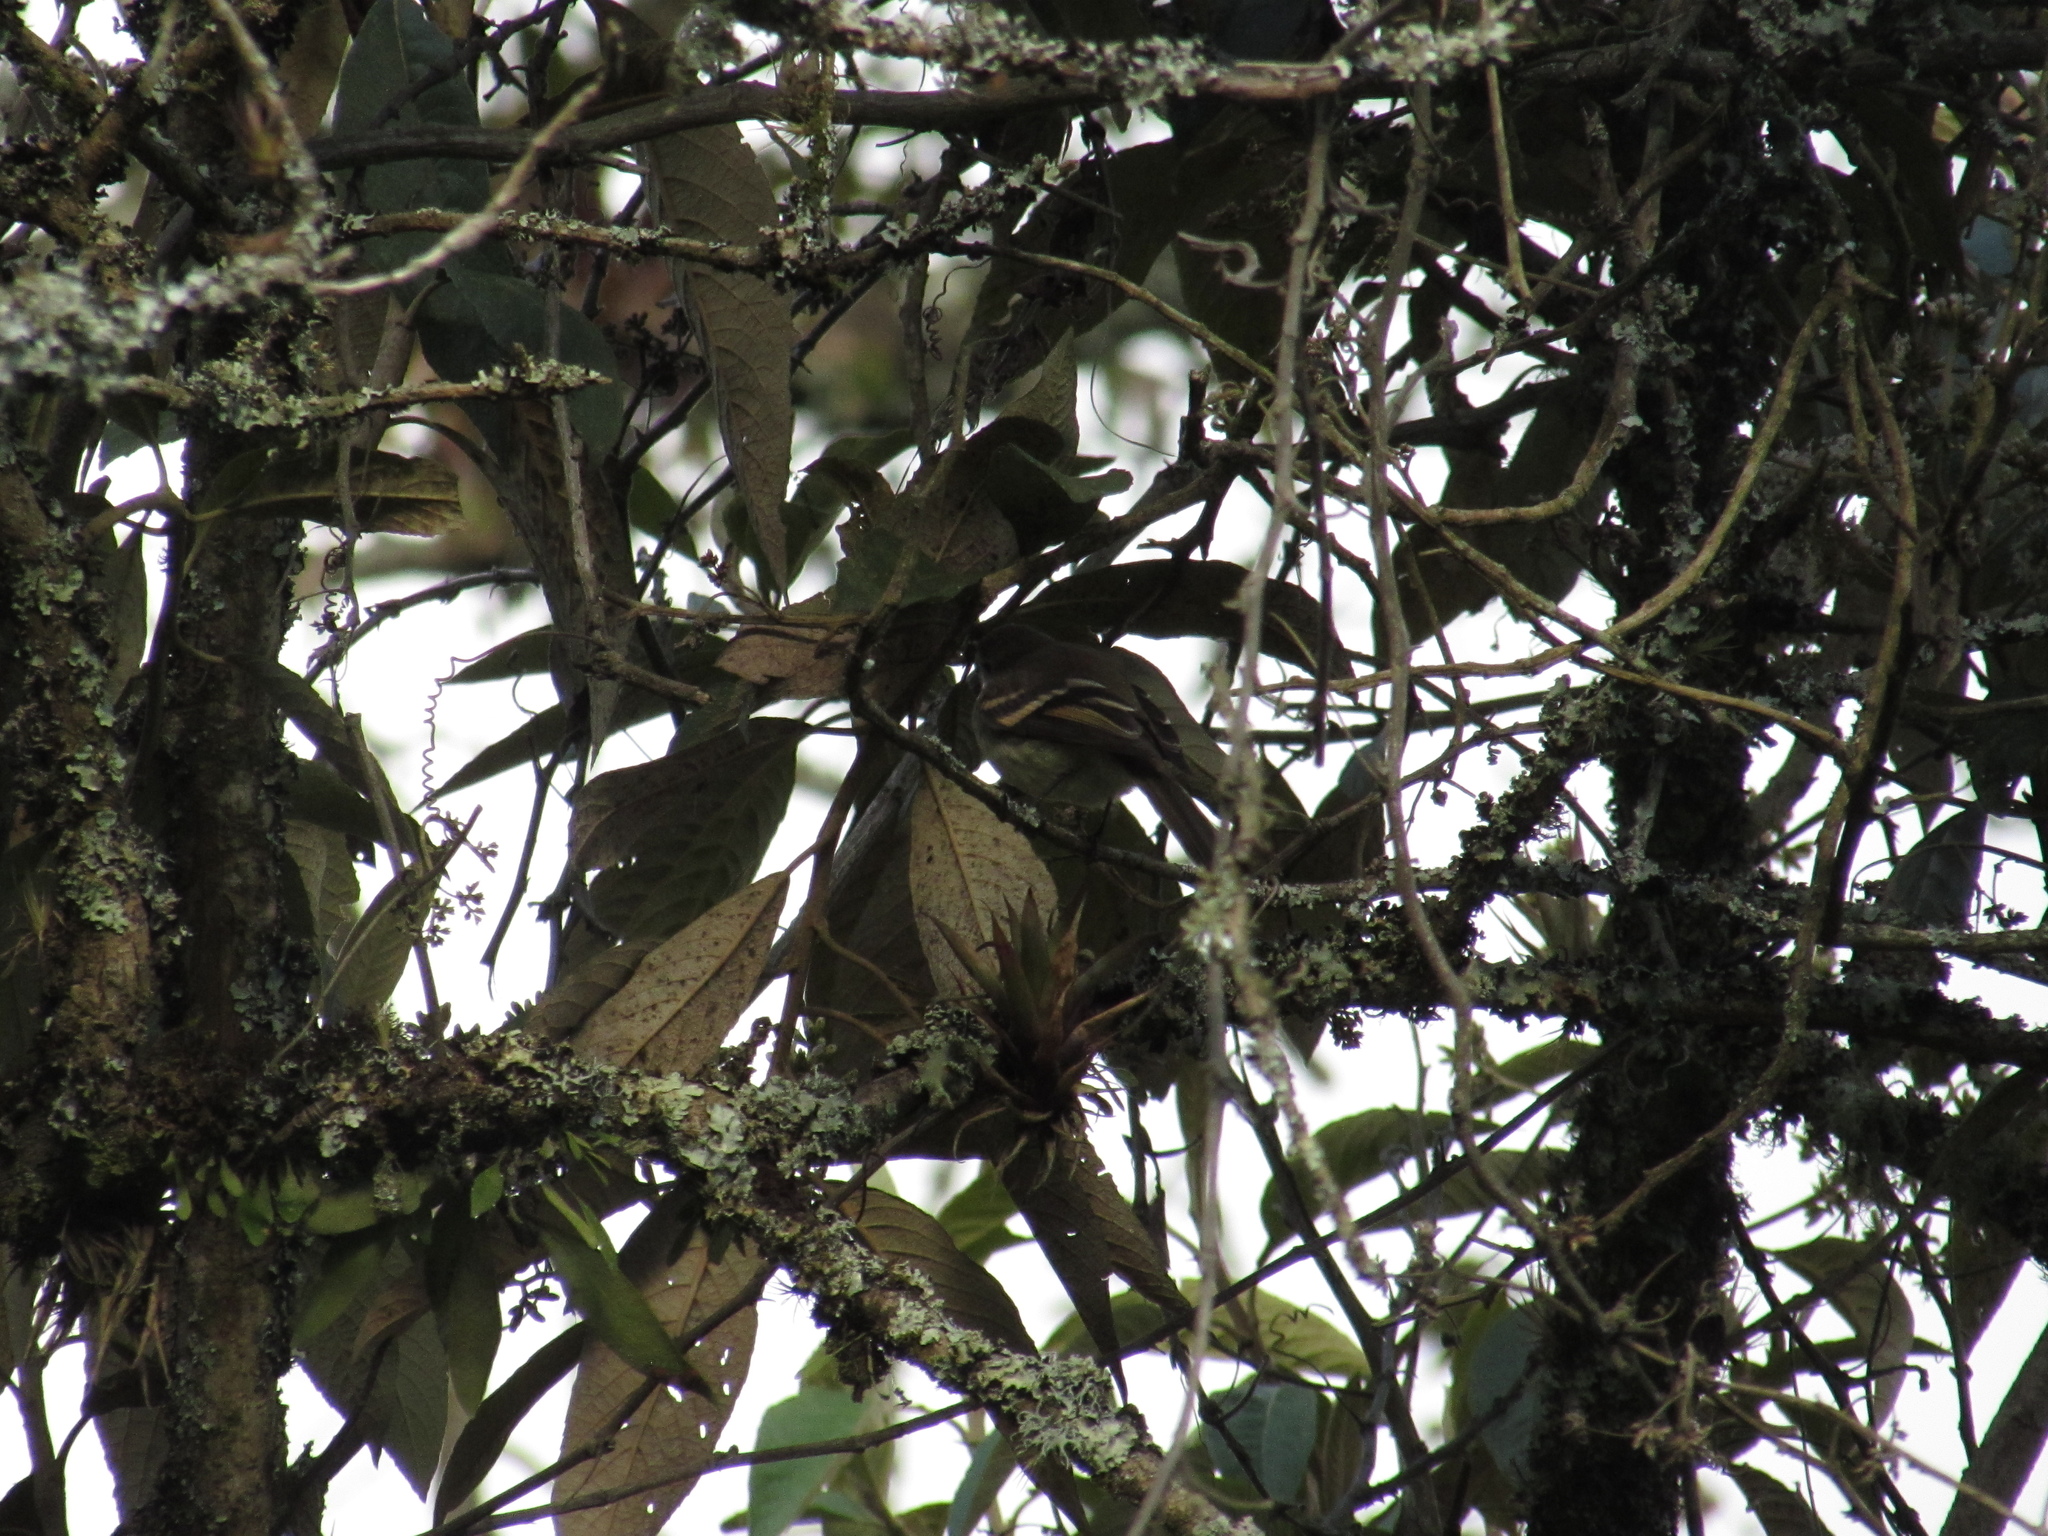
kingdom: Animalia
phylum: Chordata
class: Aves
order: Passeriformes
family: Tyrannidae
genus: Mecocerculus
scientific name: Mecocerculus leucophrys
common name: White-throated tyrannulet
